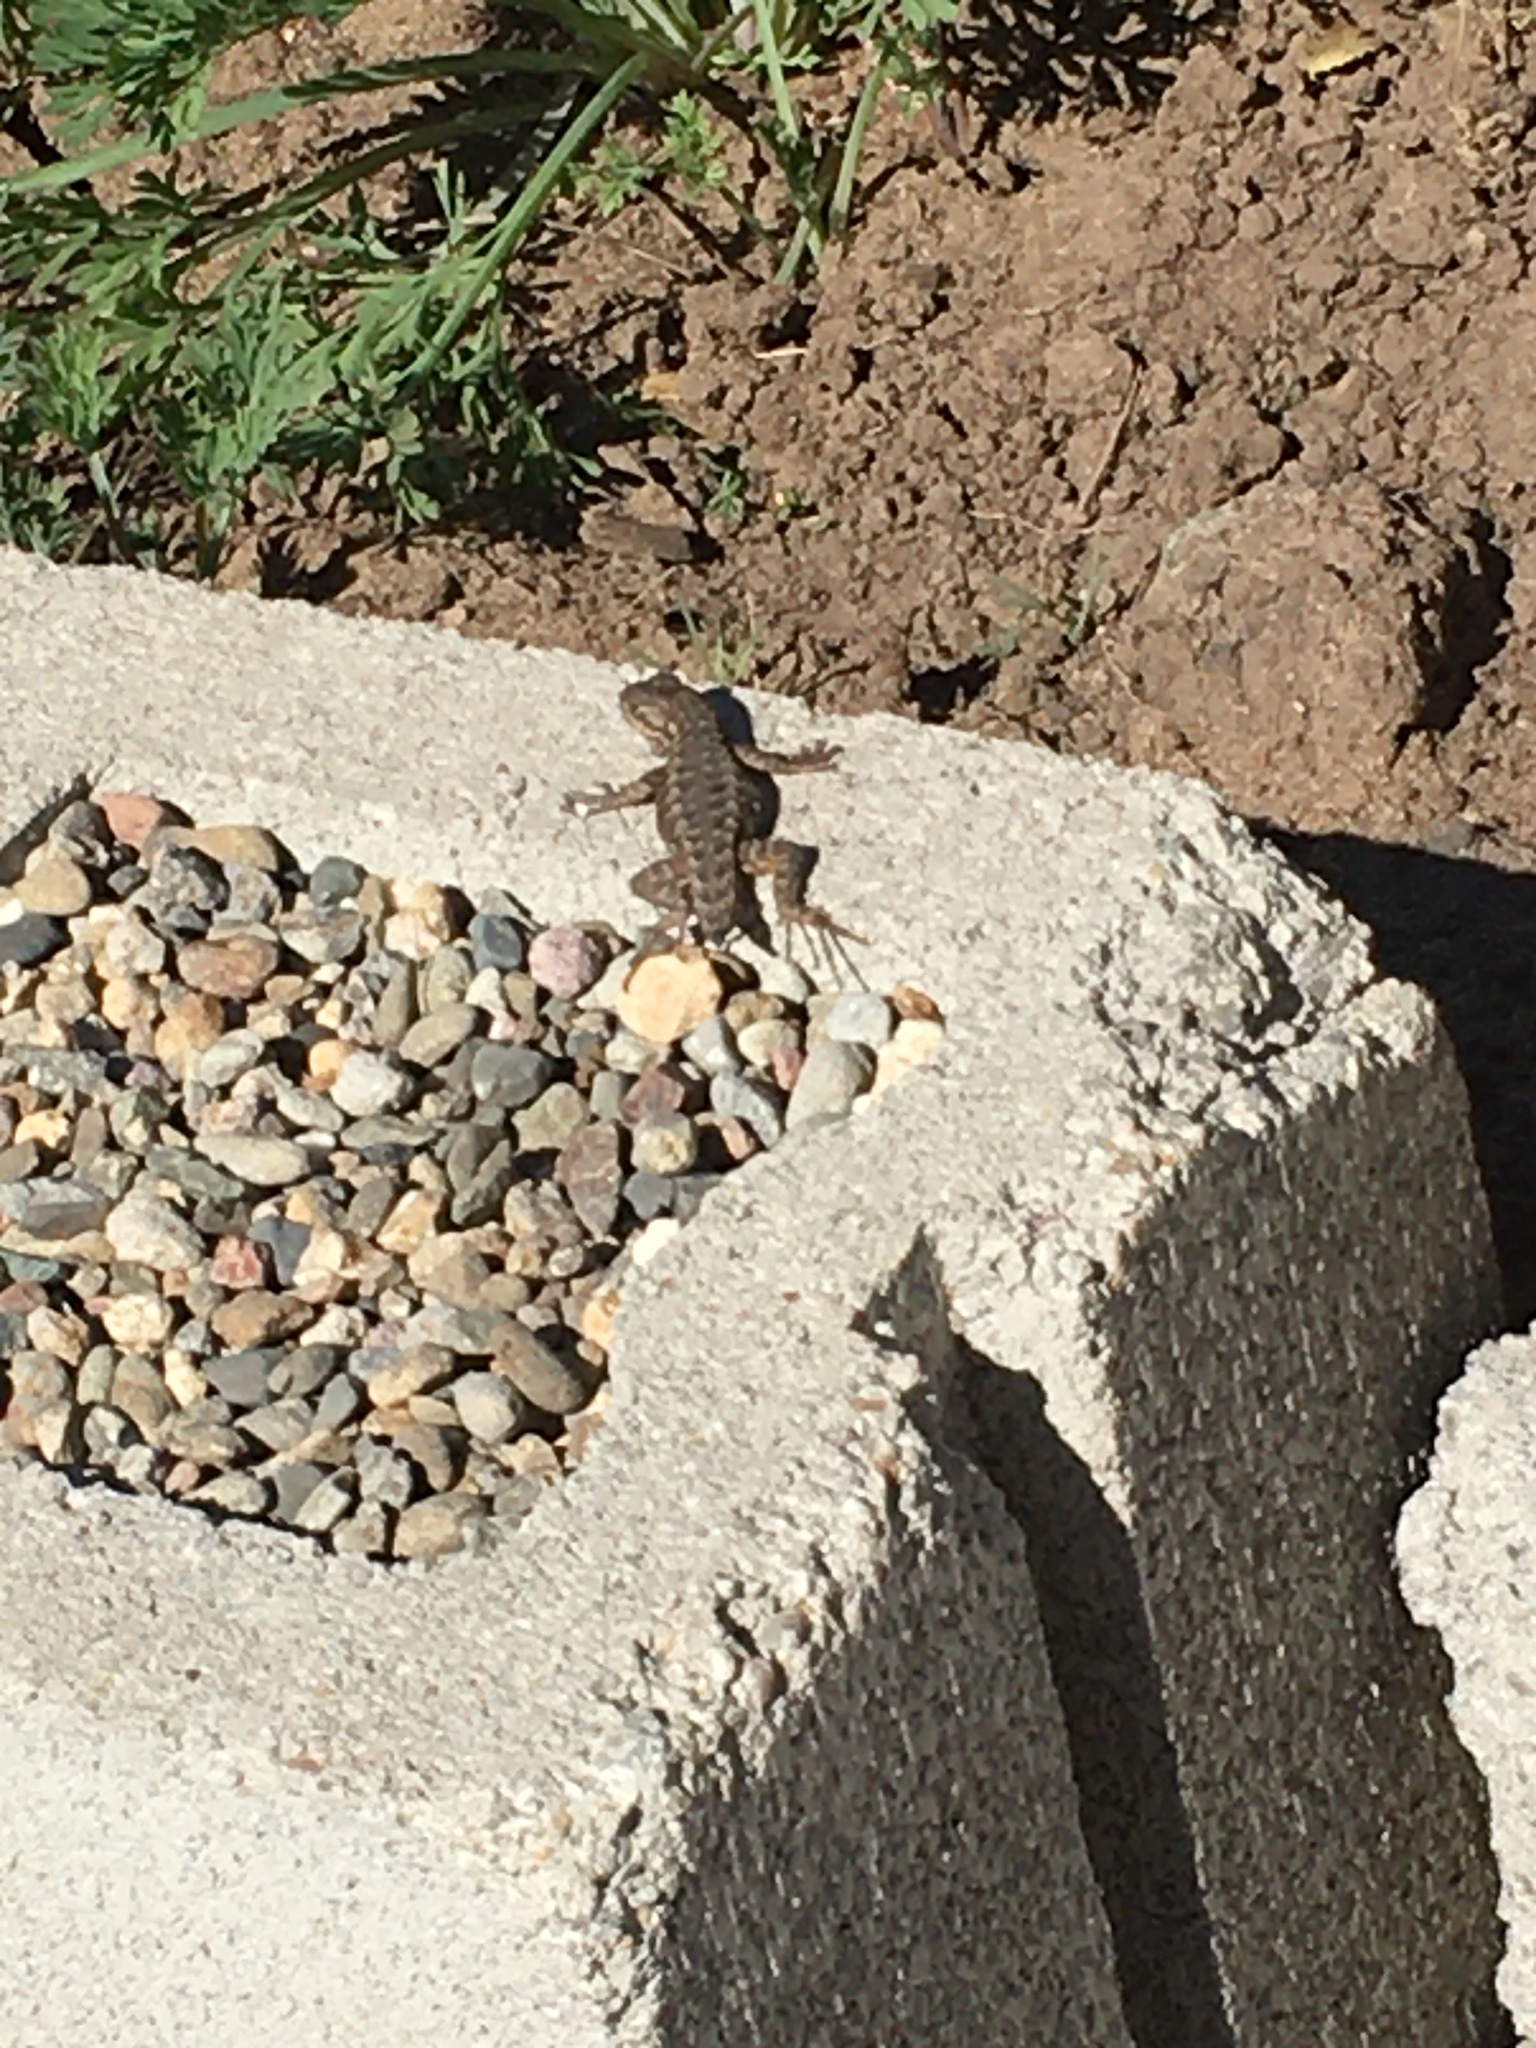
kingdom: Animalia
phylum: Chordata
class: Squamata
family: Phrynosomatidae
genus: Sceloporus
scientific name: Sceloporus occidentalis
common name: Western fence lizard
